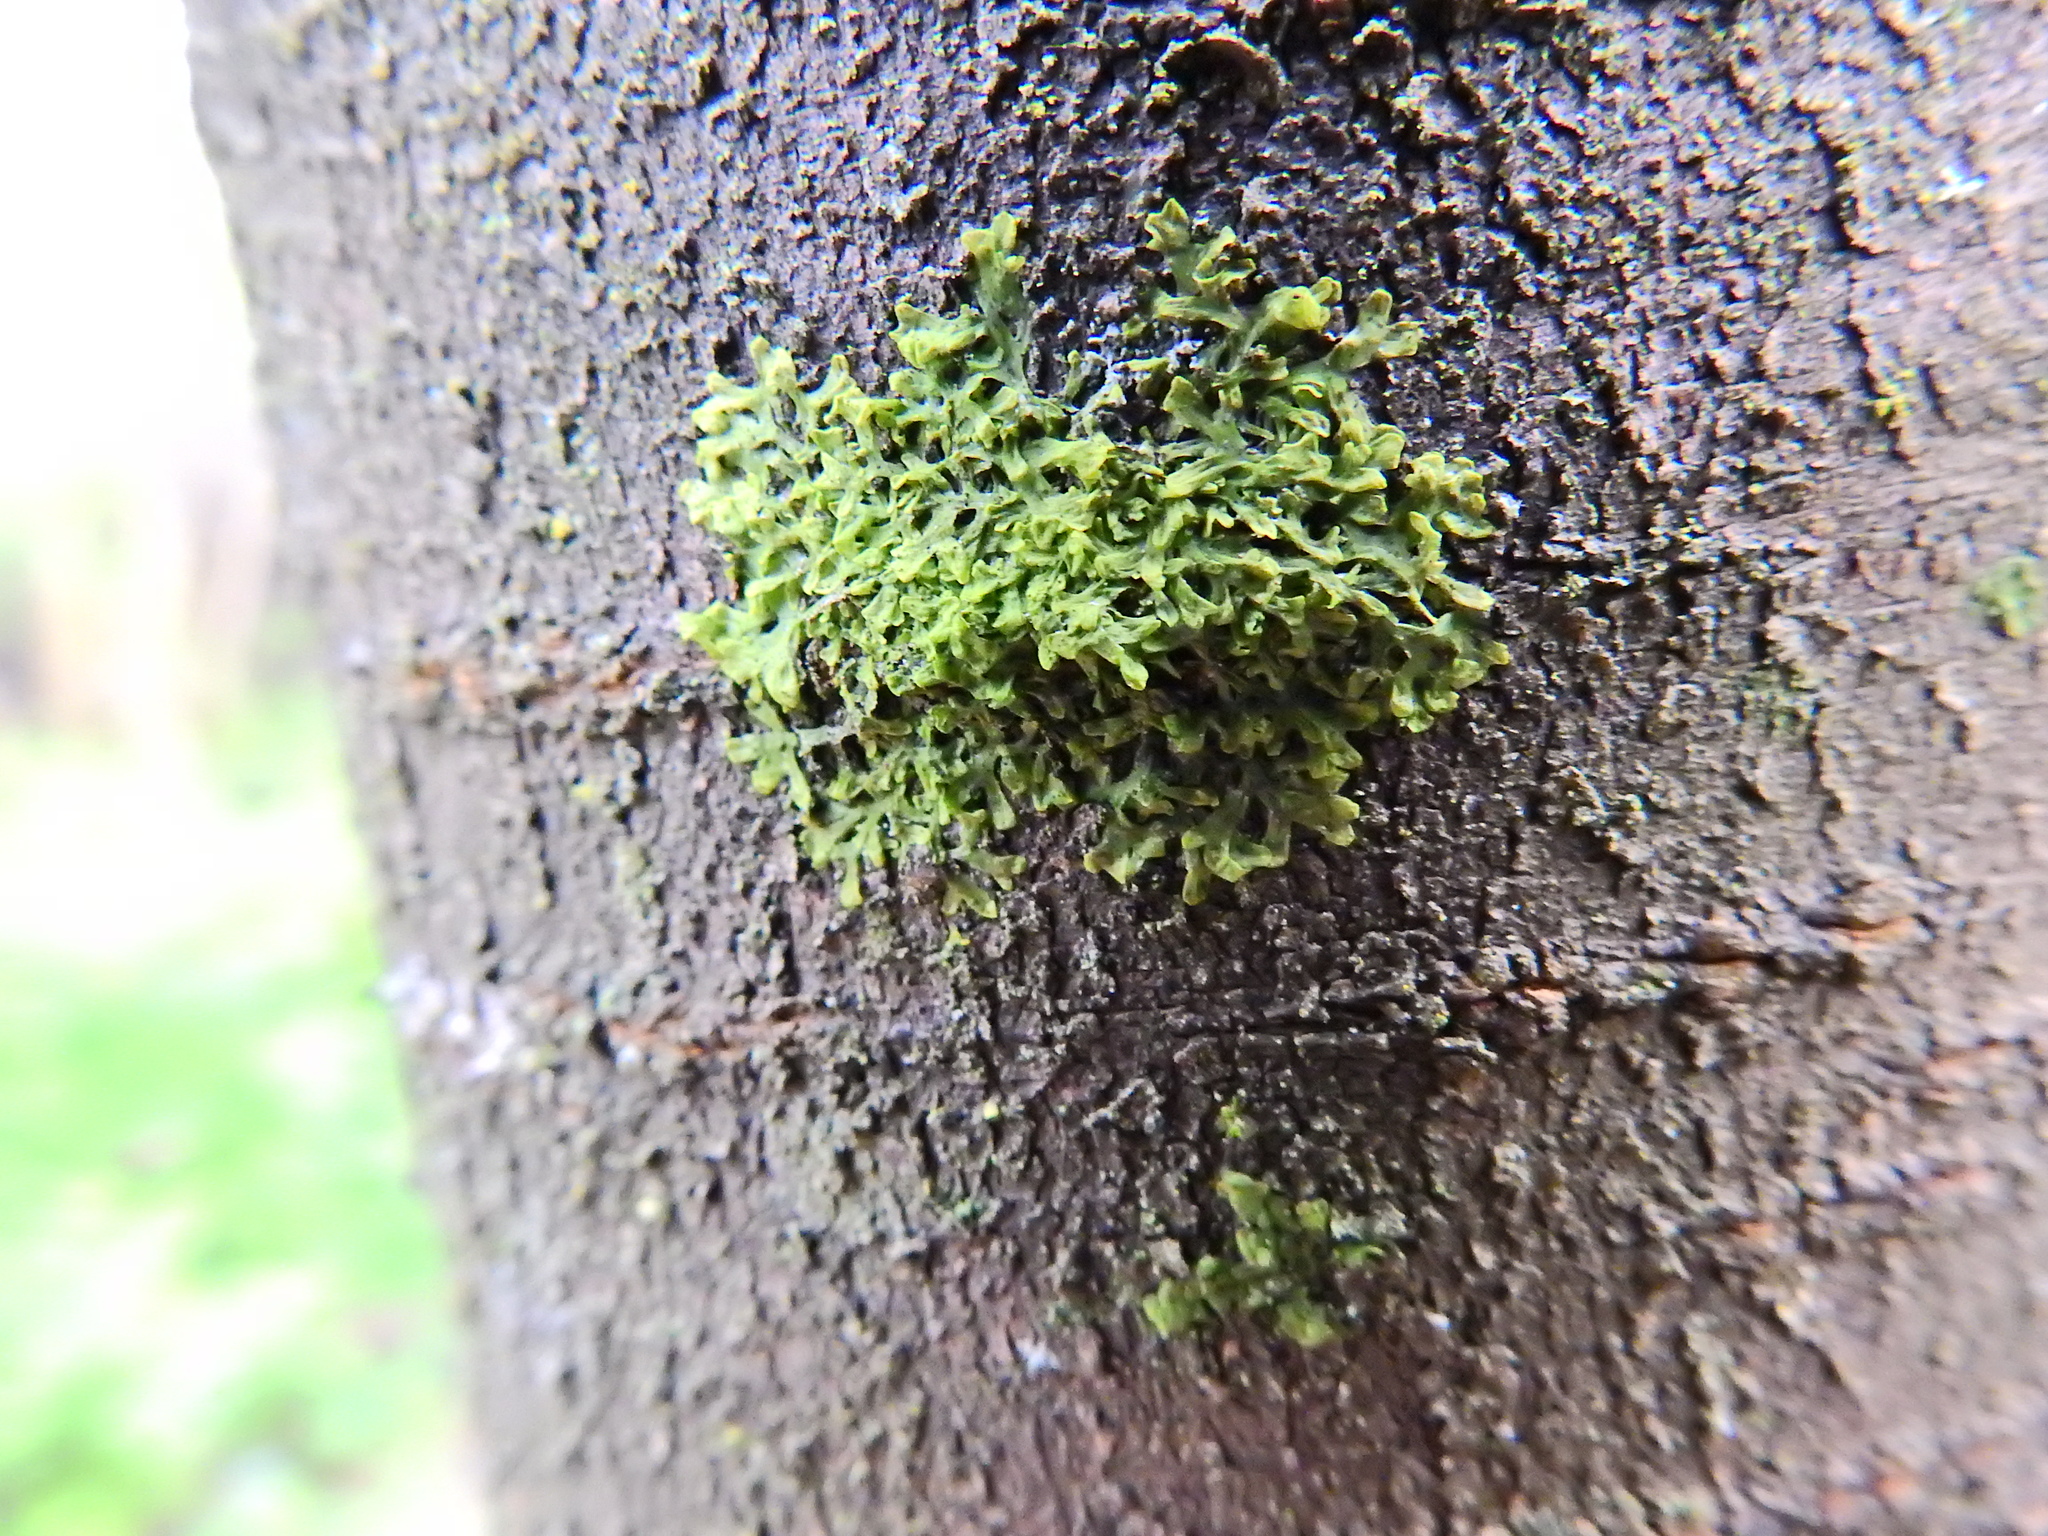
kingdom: Plantae
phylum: Marchantiophyta
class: Jungermanniopsida
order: Metzgeriales
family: Metzgeriaceae
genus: Metzgeria
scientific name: Metzgeria furcata
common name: Forked veilwort
